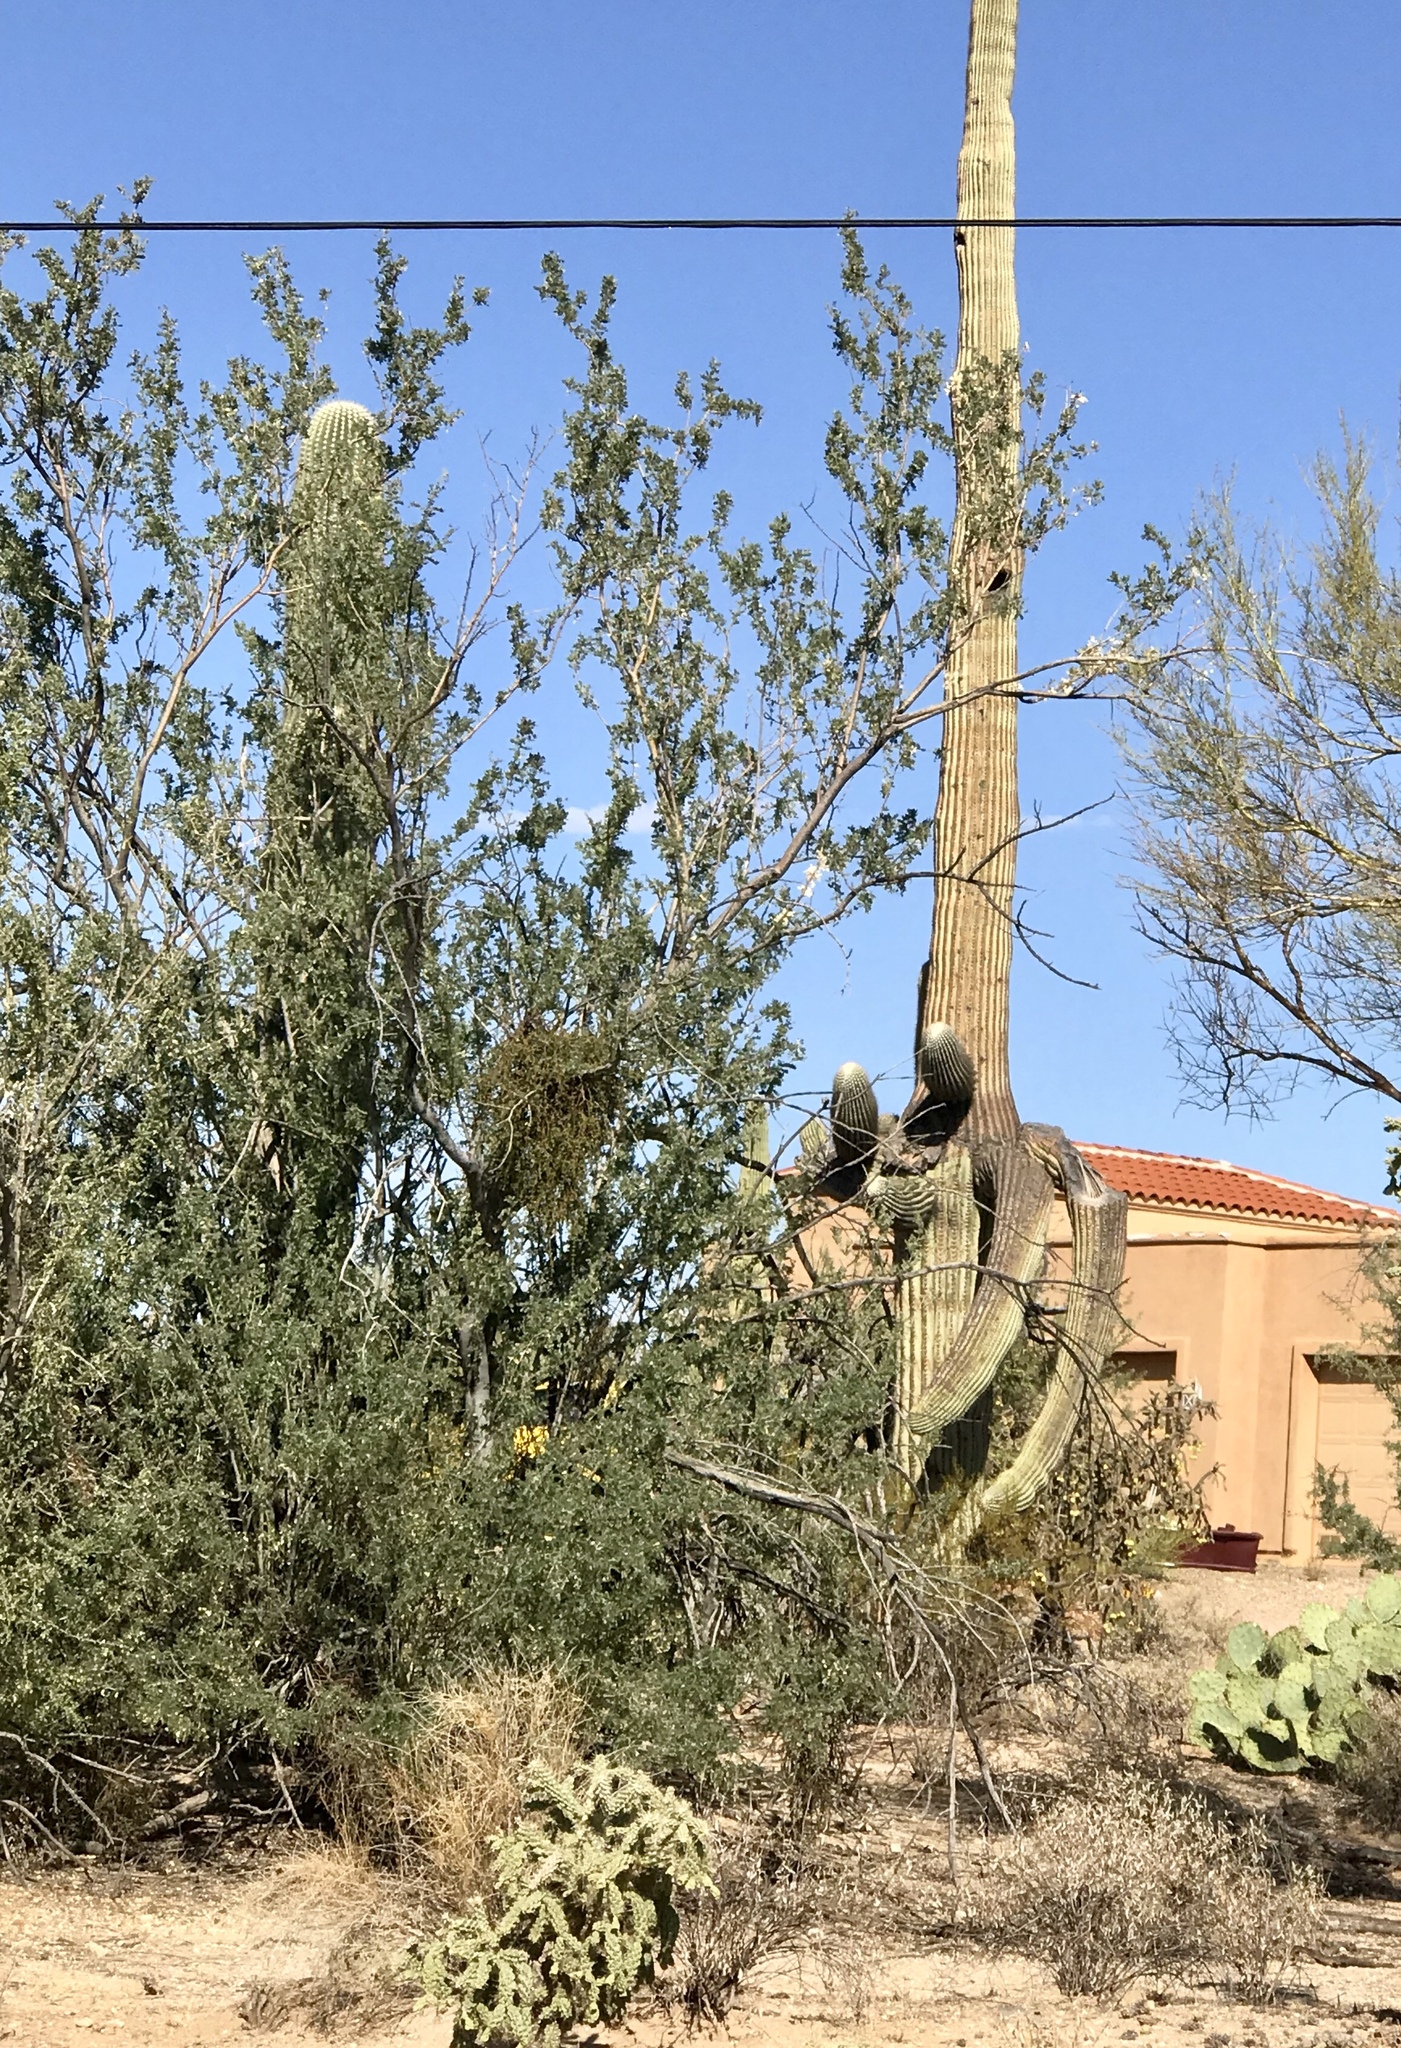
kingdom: Plantae
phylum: Tracheophyta
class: Magnoliopsida
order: Fabales
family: Fabaceae
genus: Olneya
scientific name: Olneya tesota
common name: Desert ironwood
